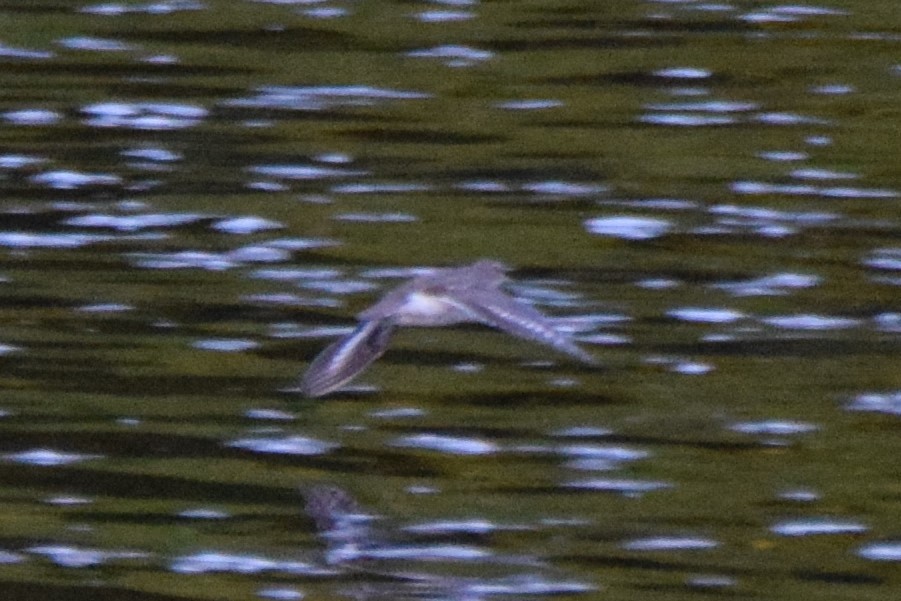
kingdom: Animalia
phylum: Chordata
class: Aves
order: Charadriiformes
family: Scolopacidae
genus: Actitis
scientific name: Actitis macularius
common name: Spotted sandpiper
